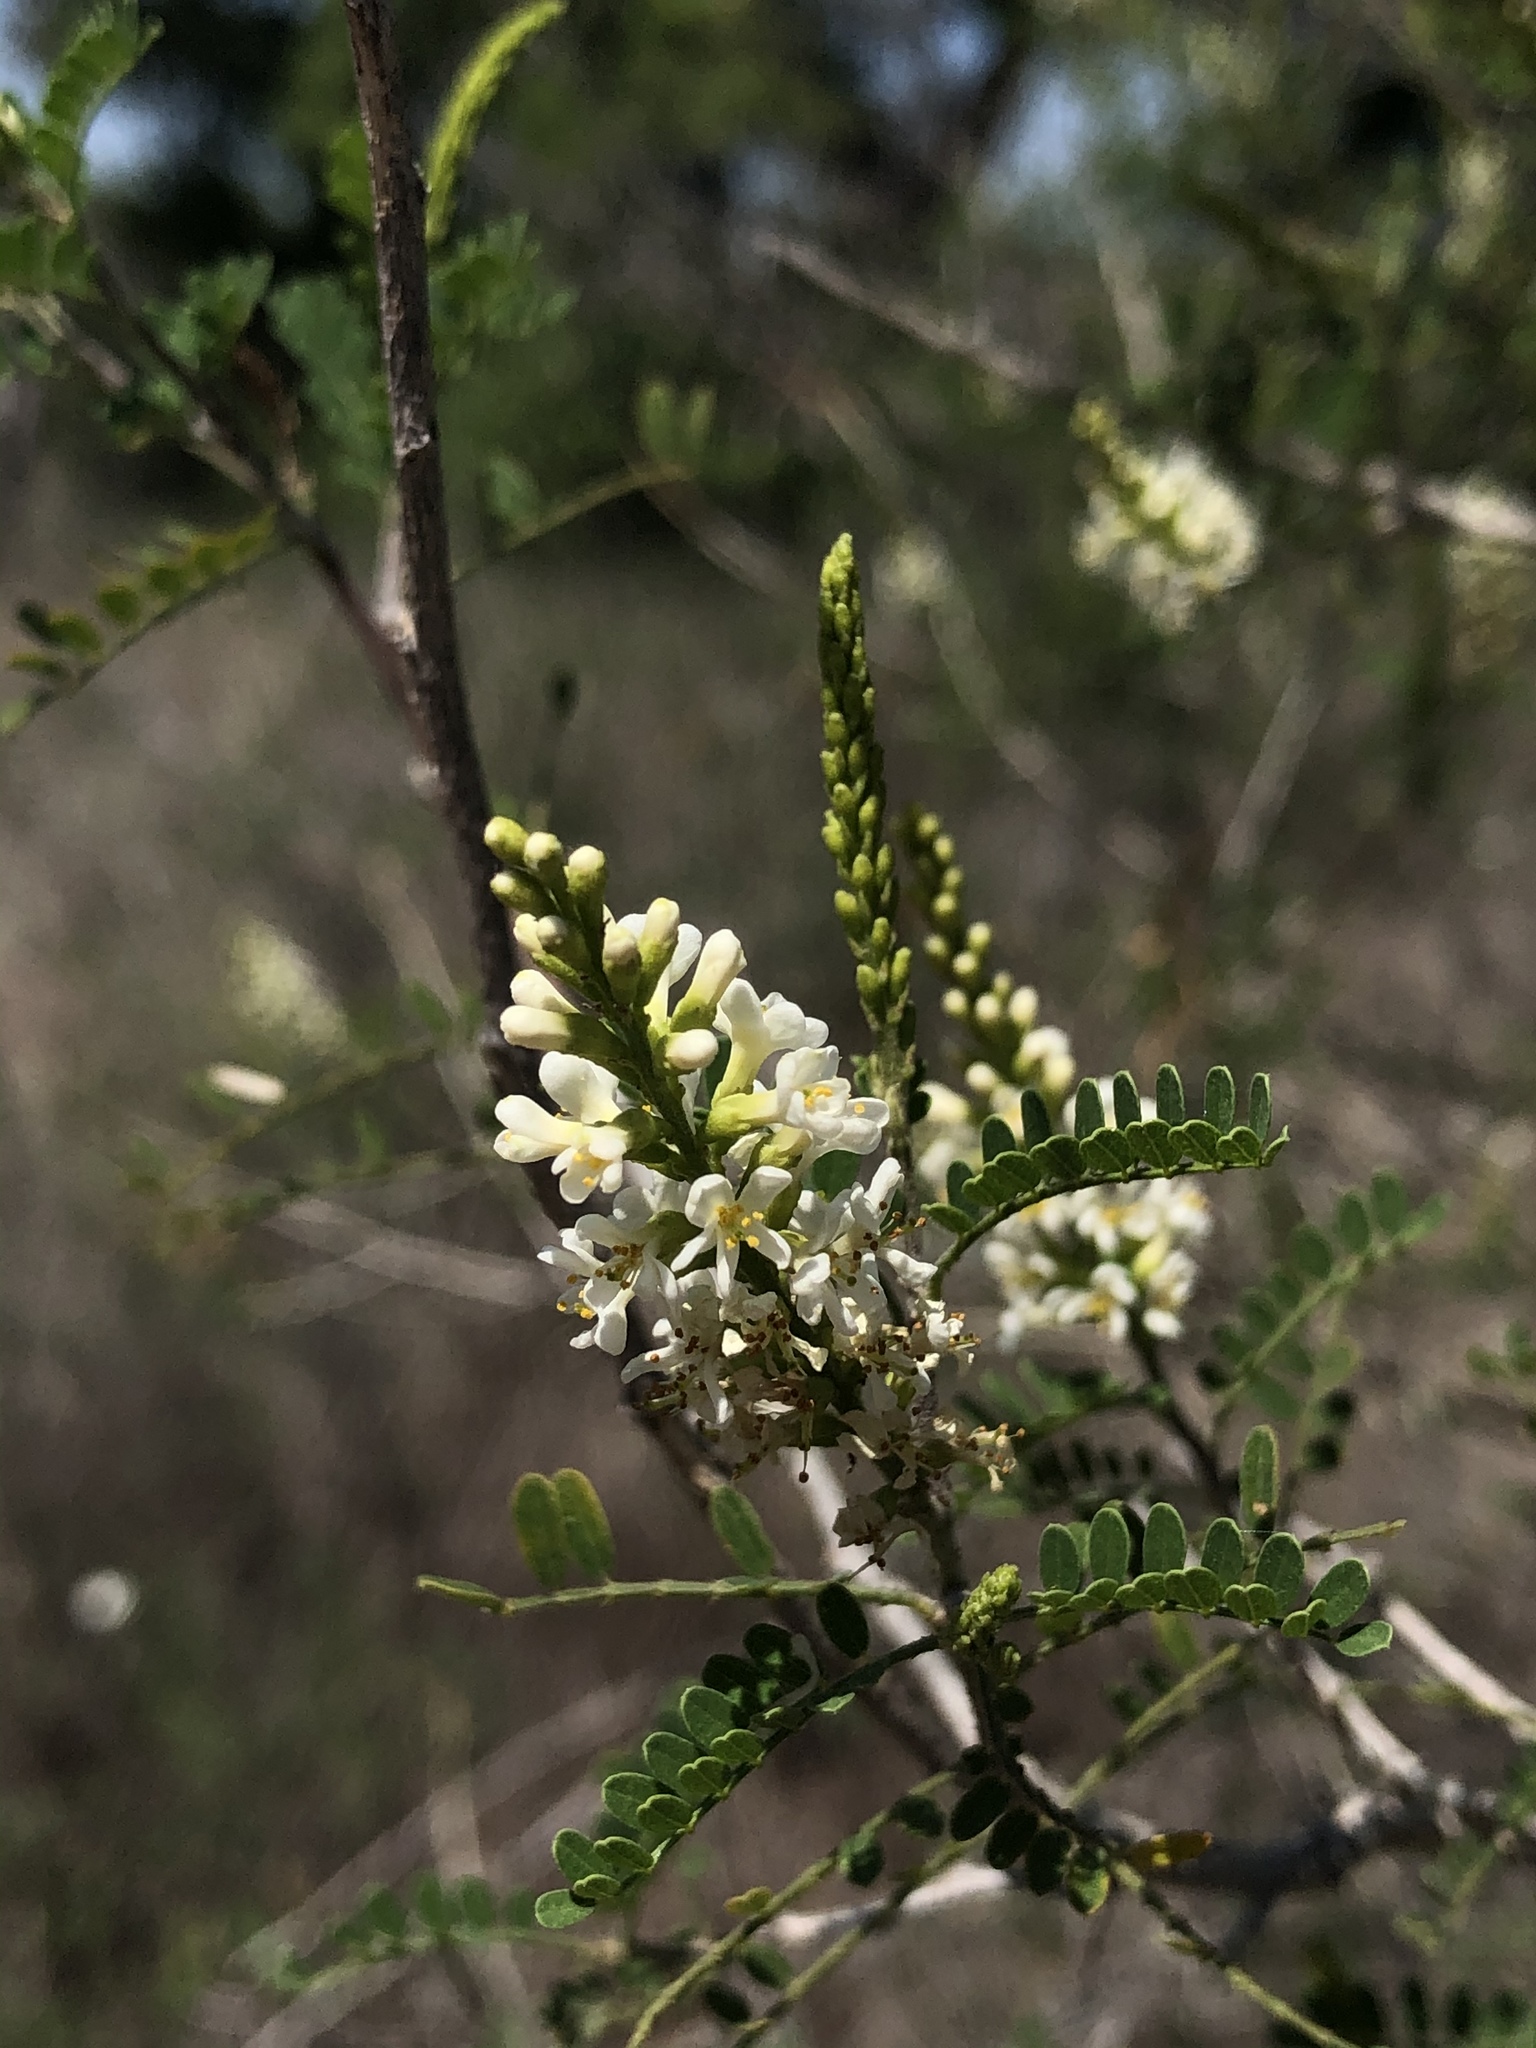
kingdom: Plantae
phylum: Tracheophyta
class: Magnoliopsida
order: Fabales
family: Fabaceae
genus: Eysenhardtia
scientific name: Eysenhardtia texana
